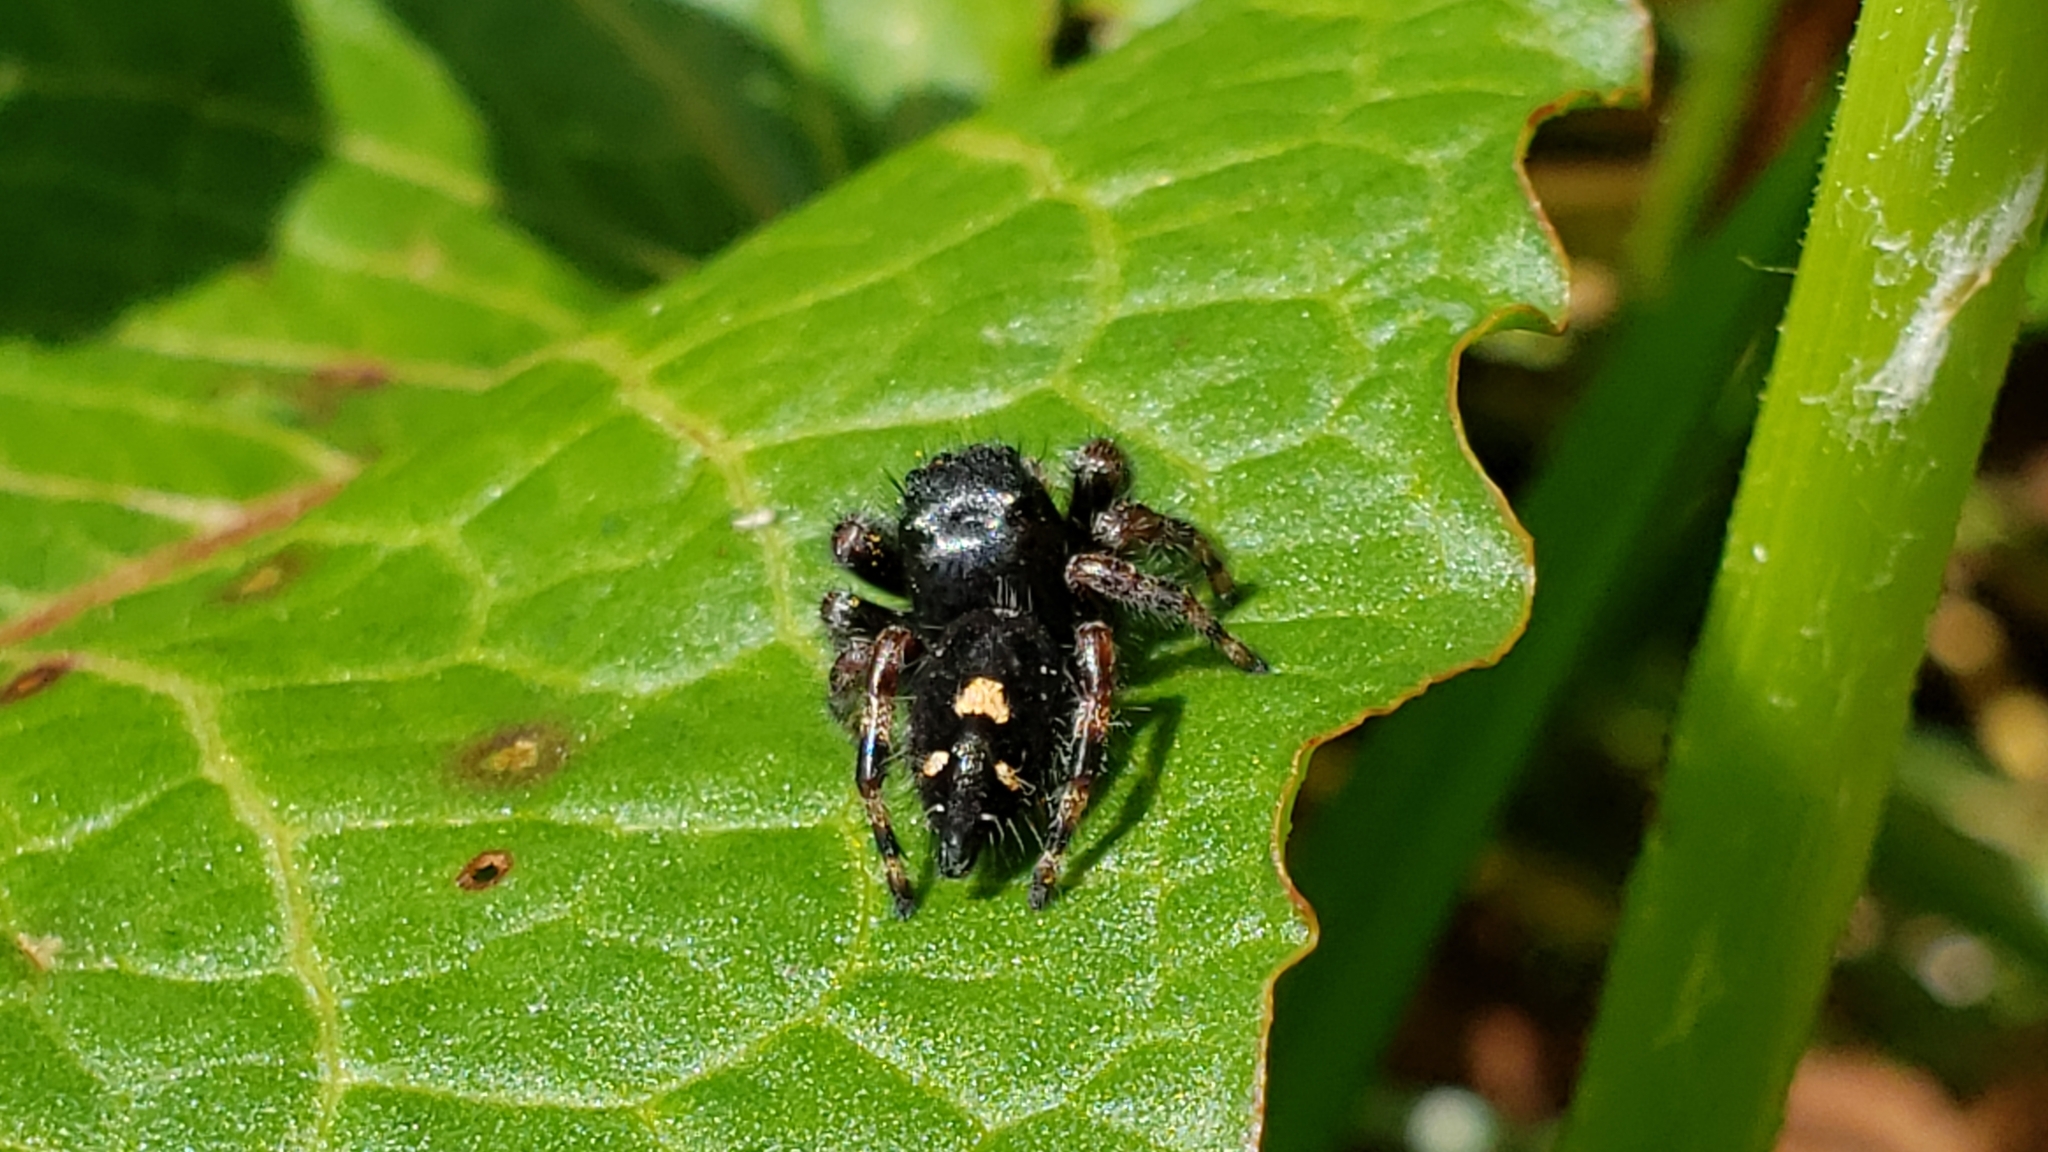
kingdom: Animalia
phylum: Arthropoda
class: Arachnida
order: Araneae
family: Salticidae
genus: Phidippus
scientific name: Phidippus audax
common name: Bold jumper
